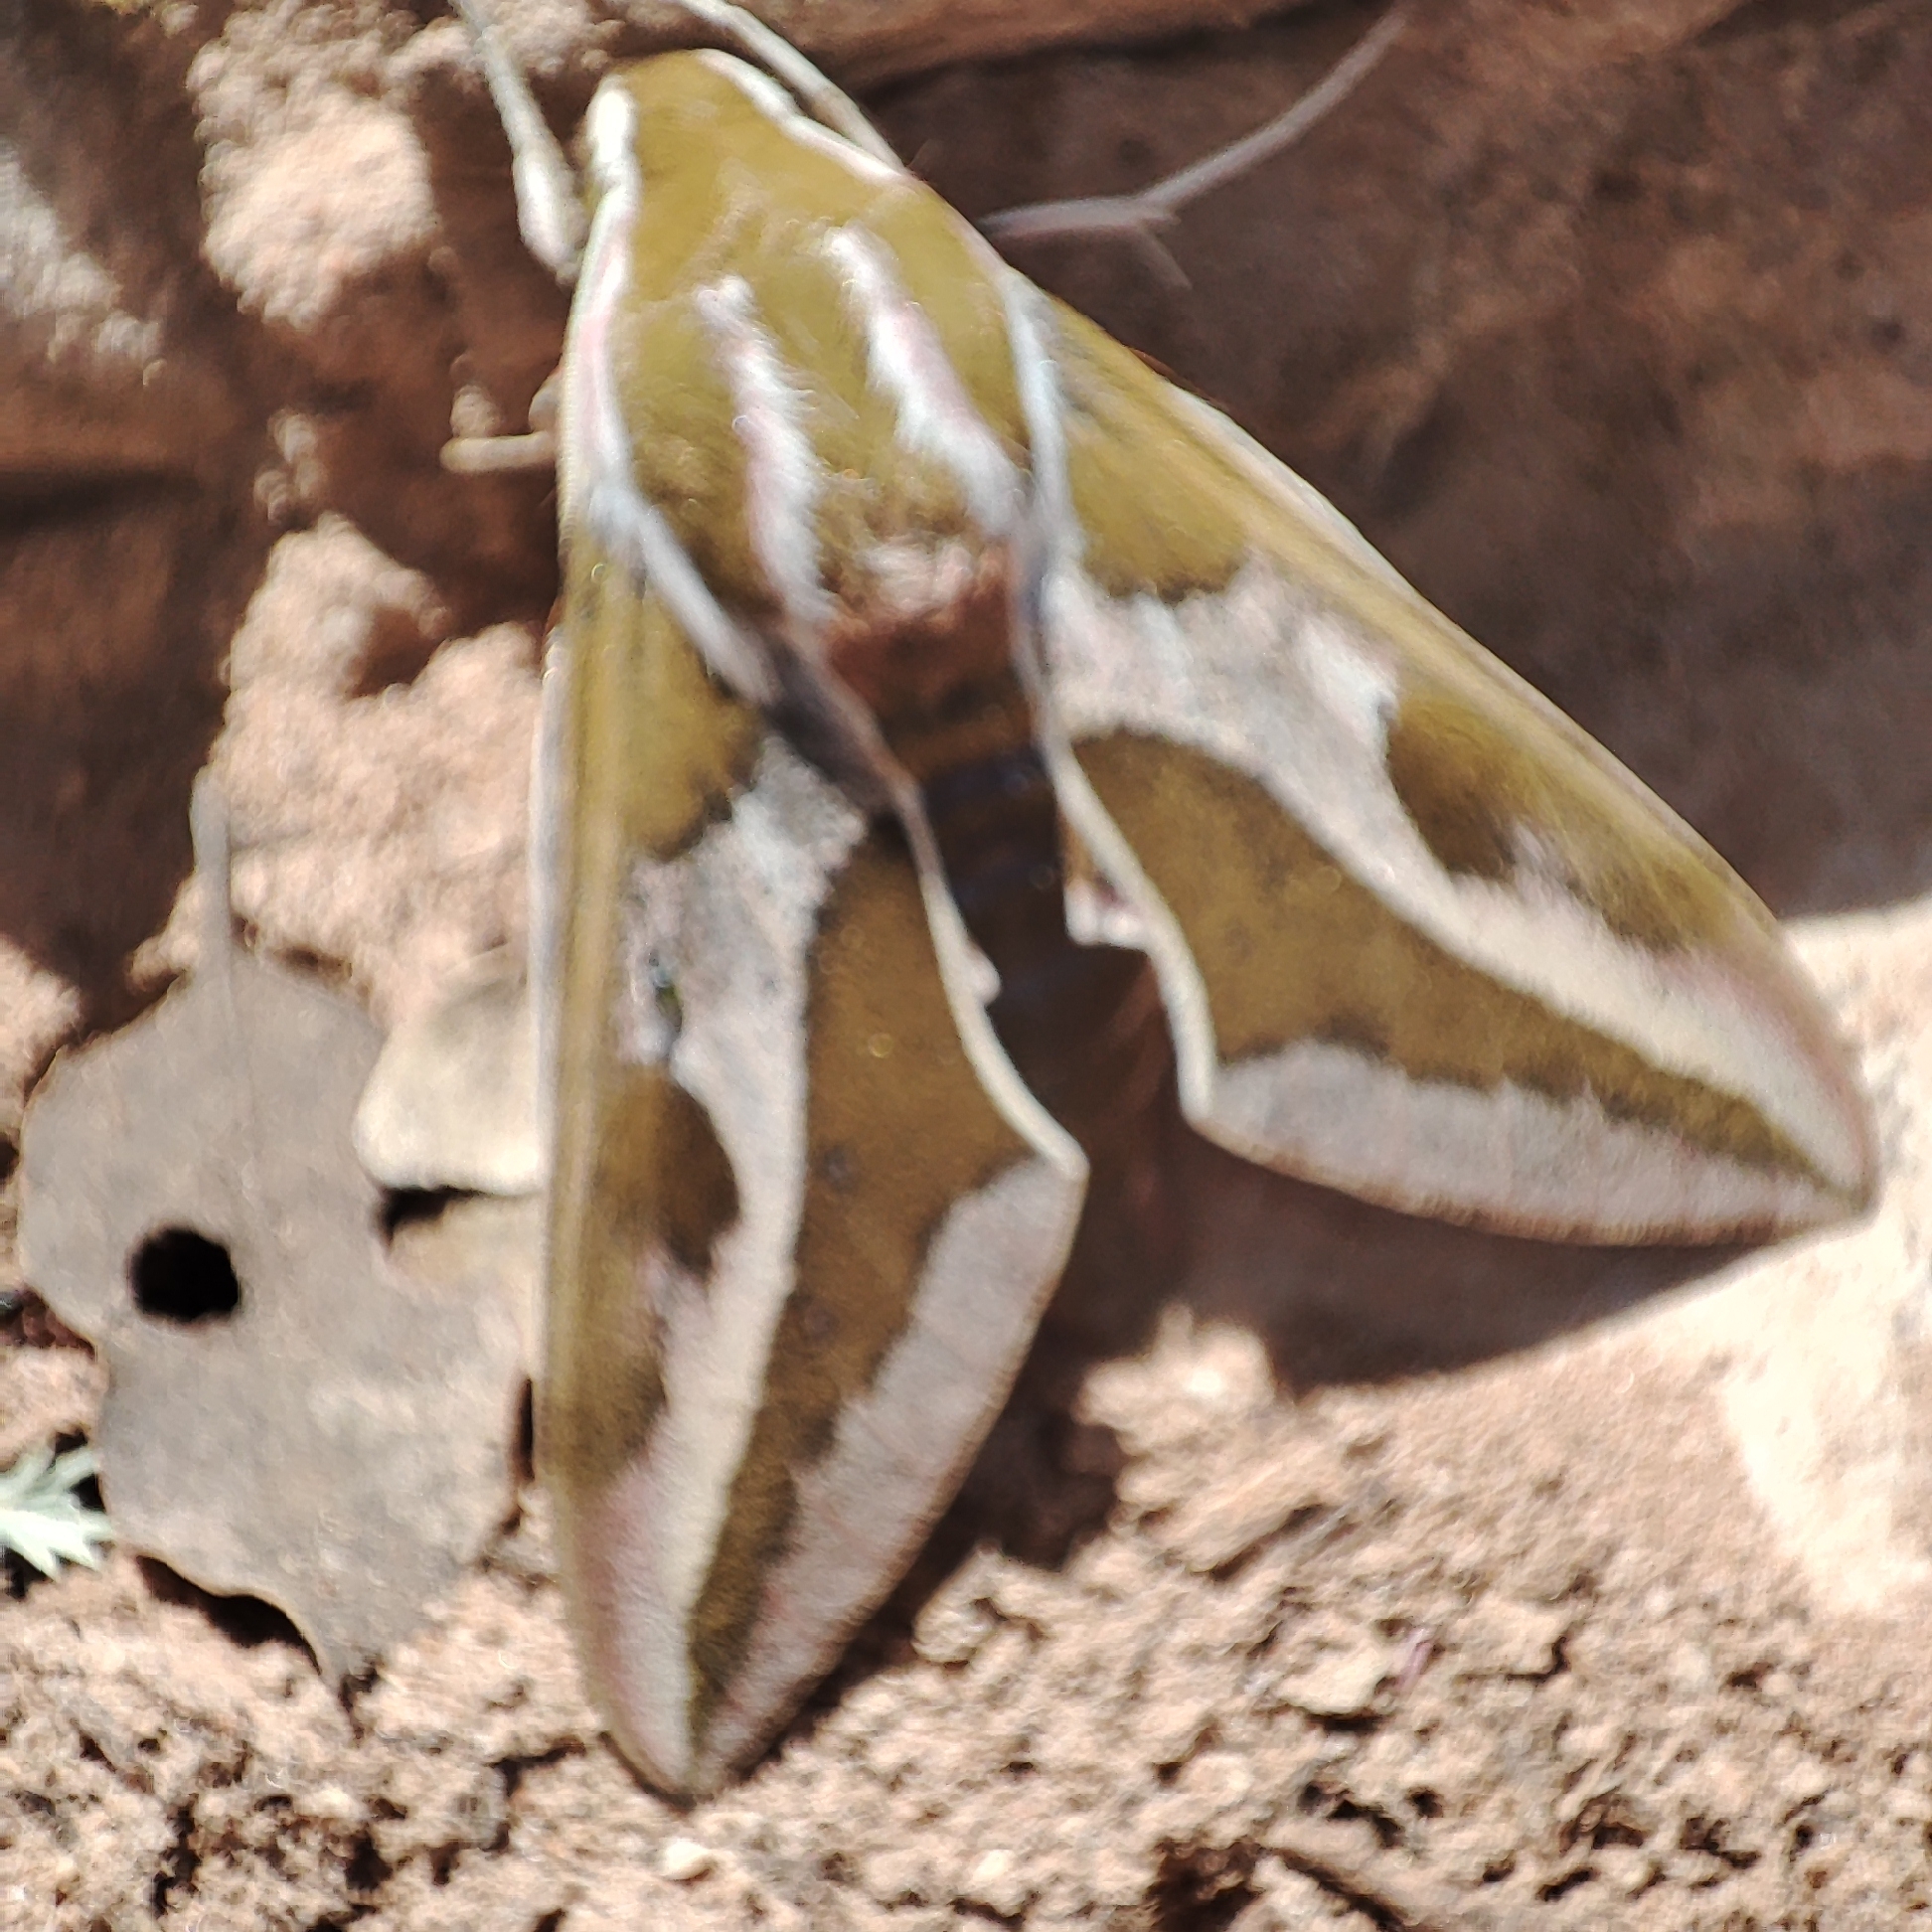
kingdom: Animalia
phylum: Arthropoda
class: Insecta
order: Lepidoptera
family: Sphingidae
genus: Hyles
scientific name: Hyles euphorbiae
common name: Spurge hawk-moth
